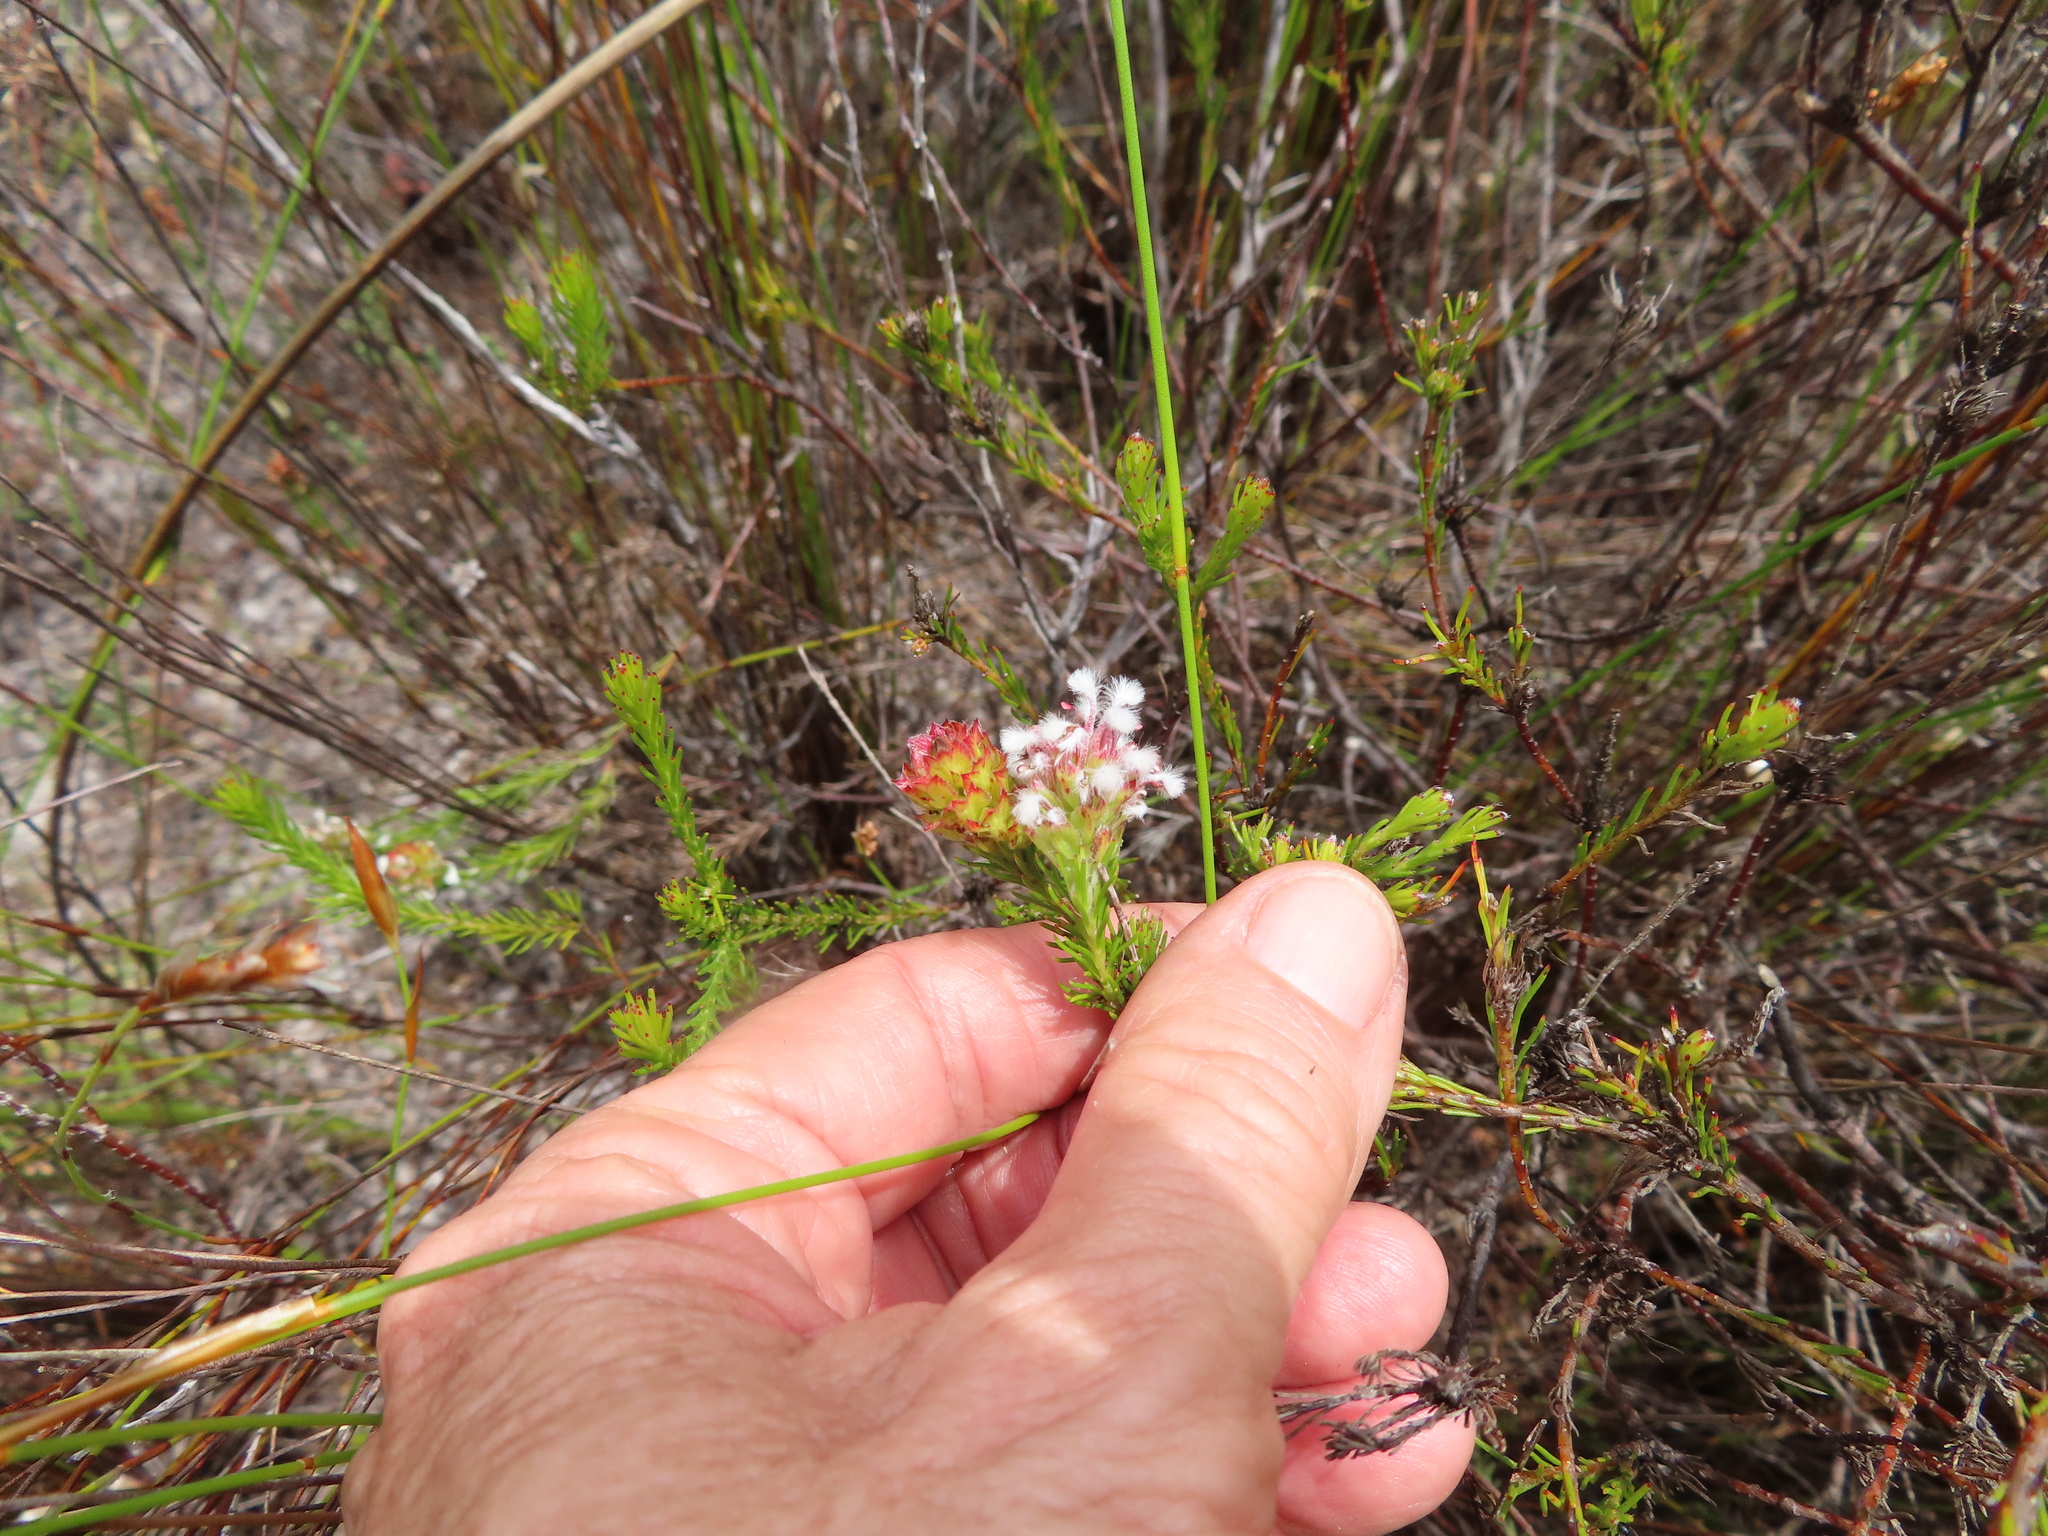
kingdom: Plantae
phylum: Tracheophyta
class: Magnoliopsida
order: Ericales
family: Ericaceae
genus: Erica
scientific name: Erica ampullacea
